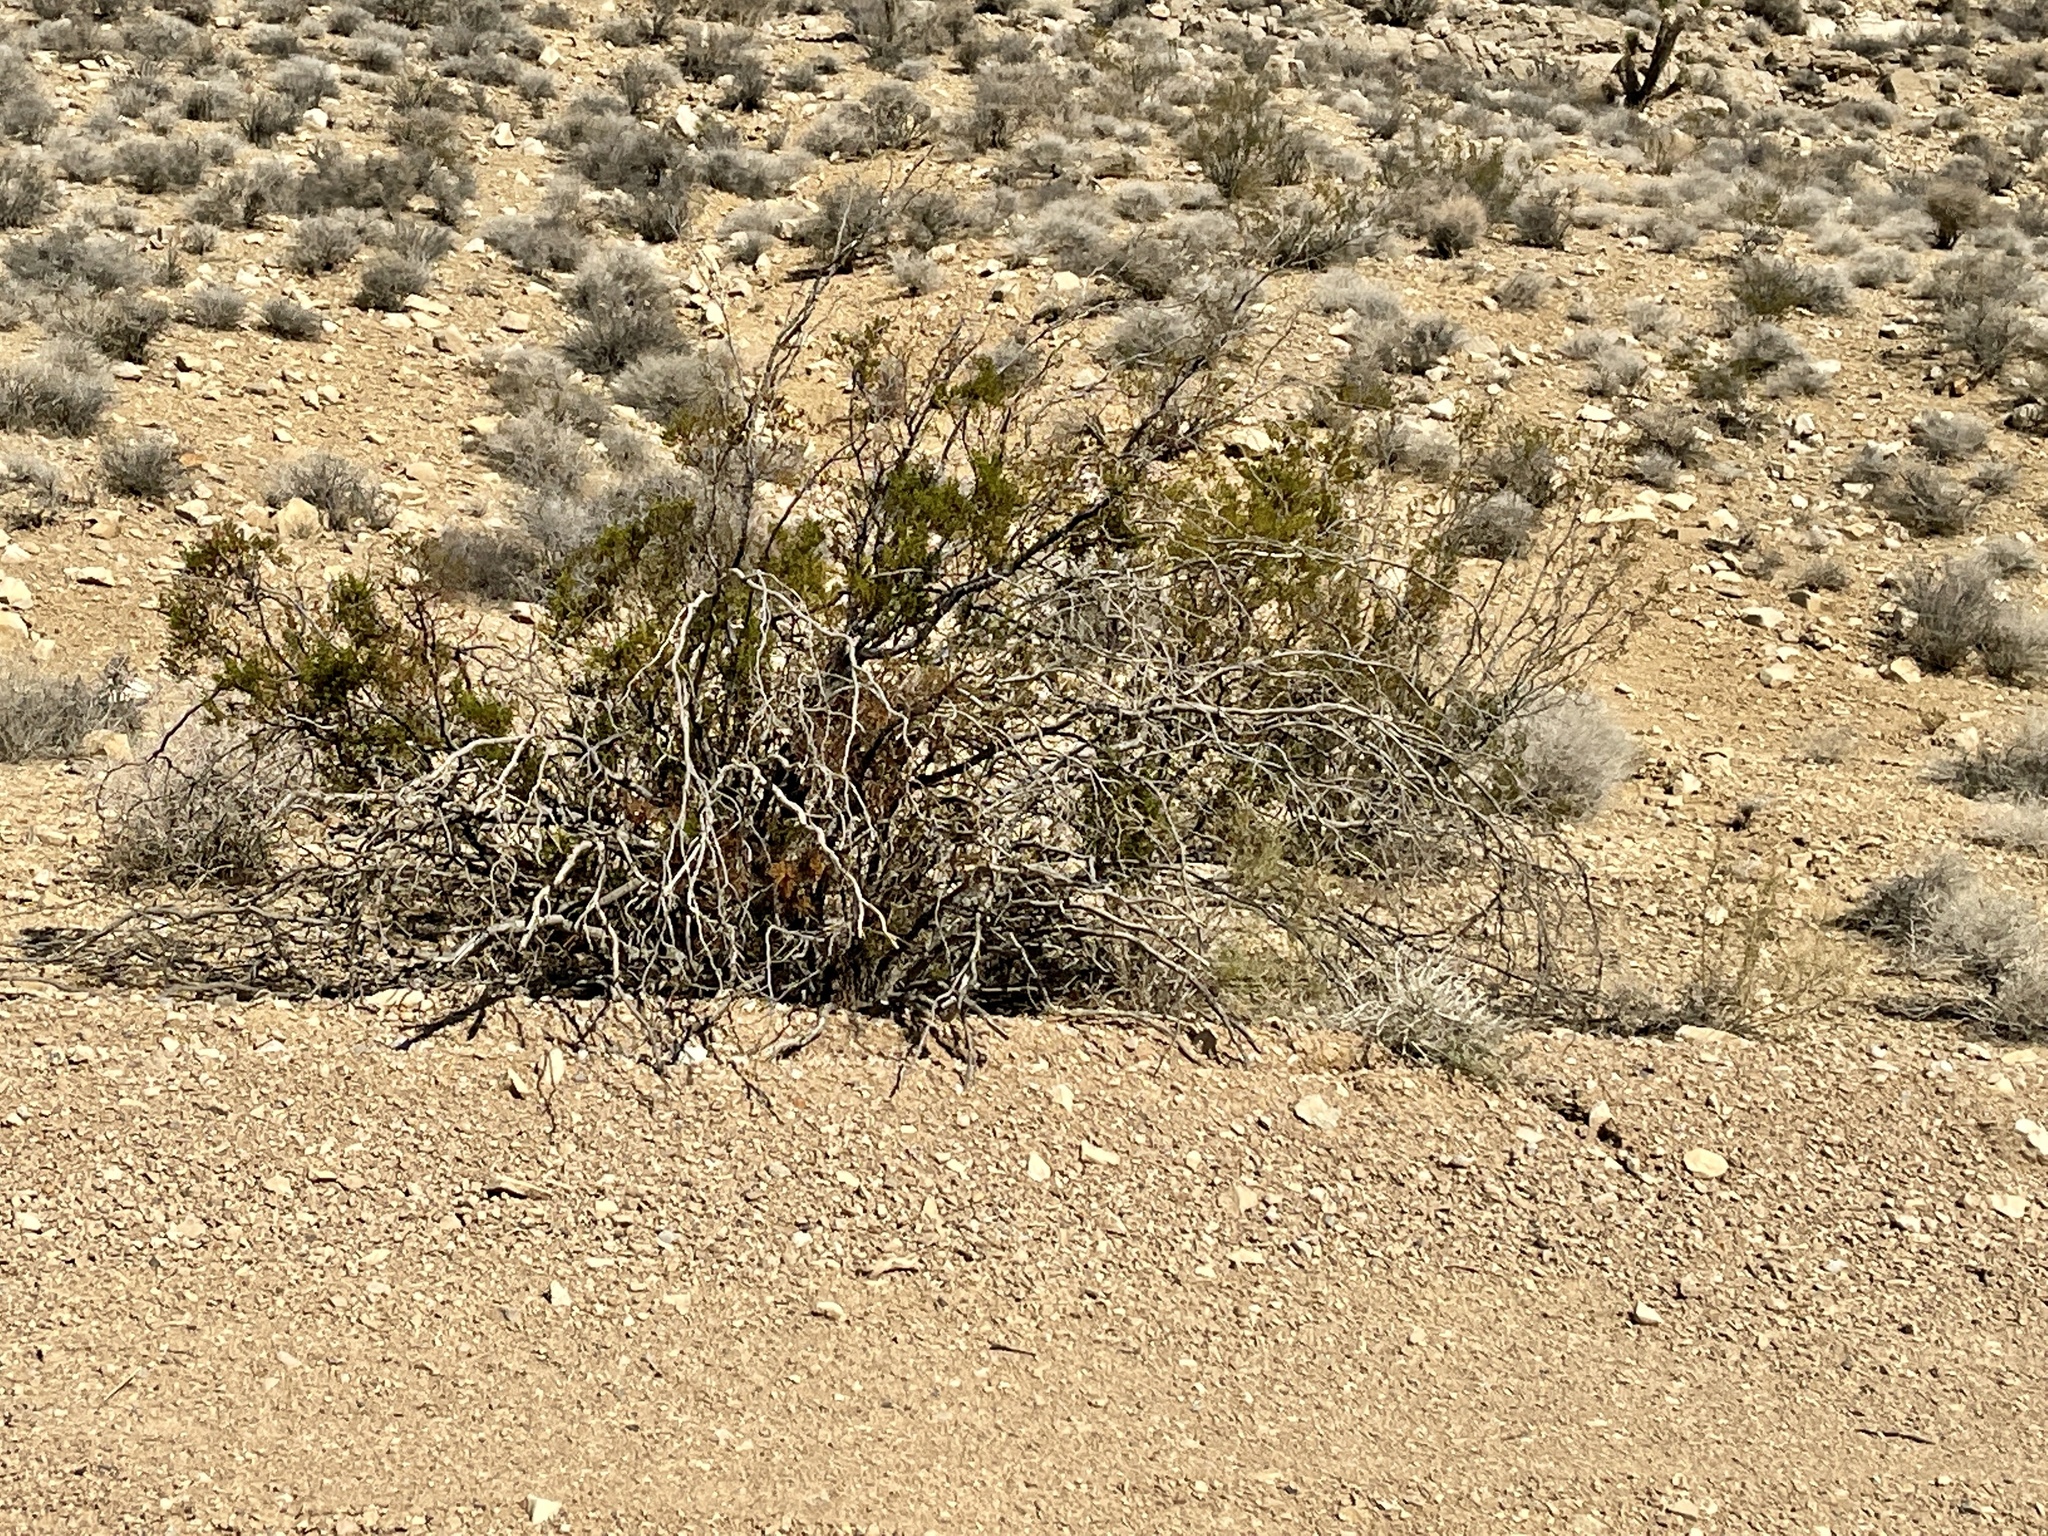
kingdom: Plantae
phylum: Tracheophyta
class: Magnoliopsida
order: Zygophyllales
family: Zygophyllaceae
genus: Larrea
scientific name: Larrea tridentata
